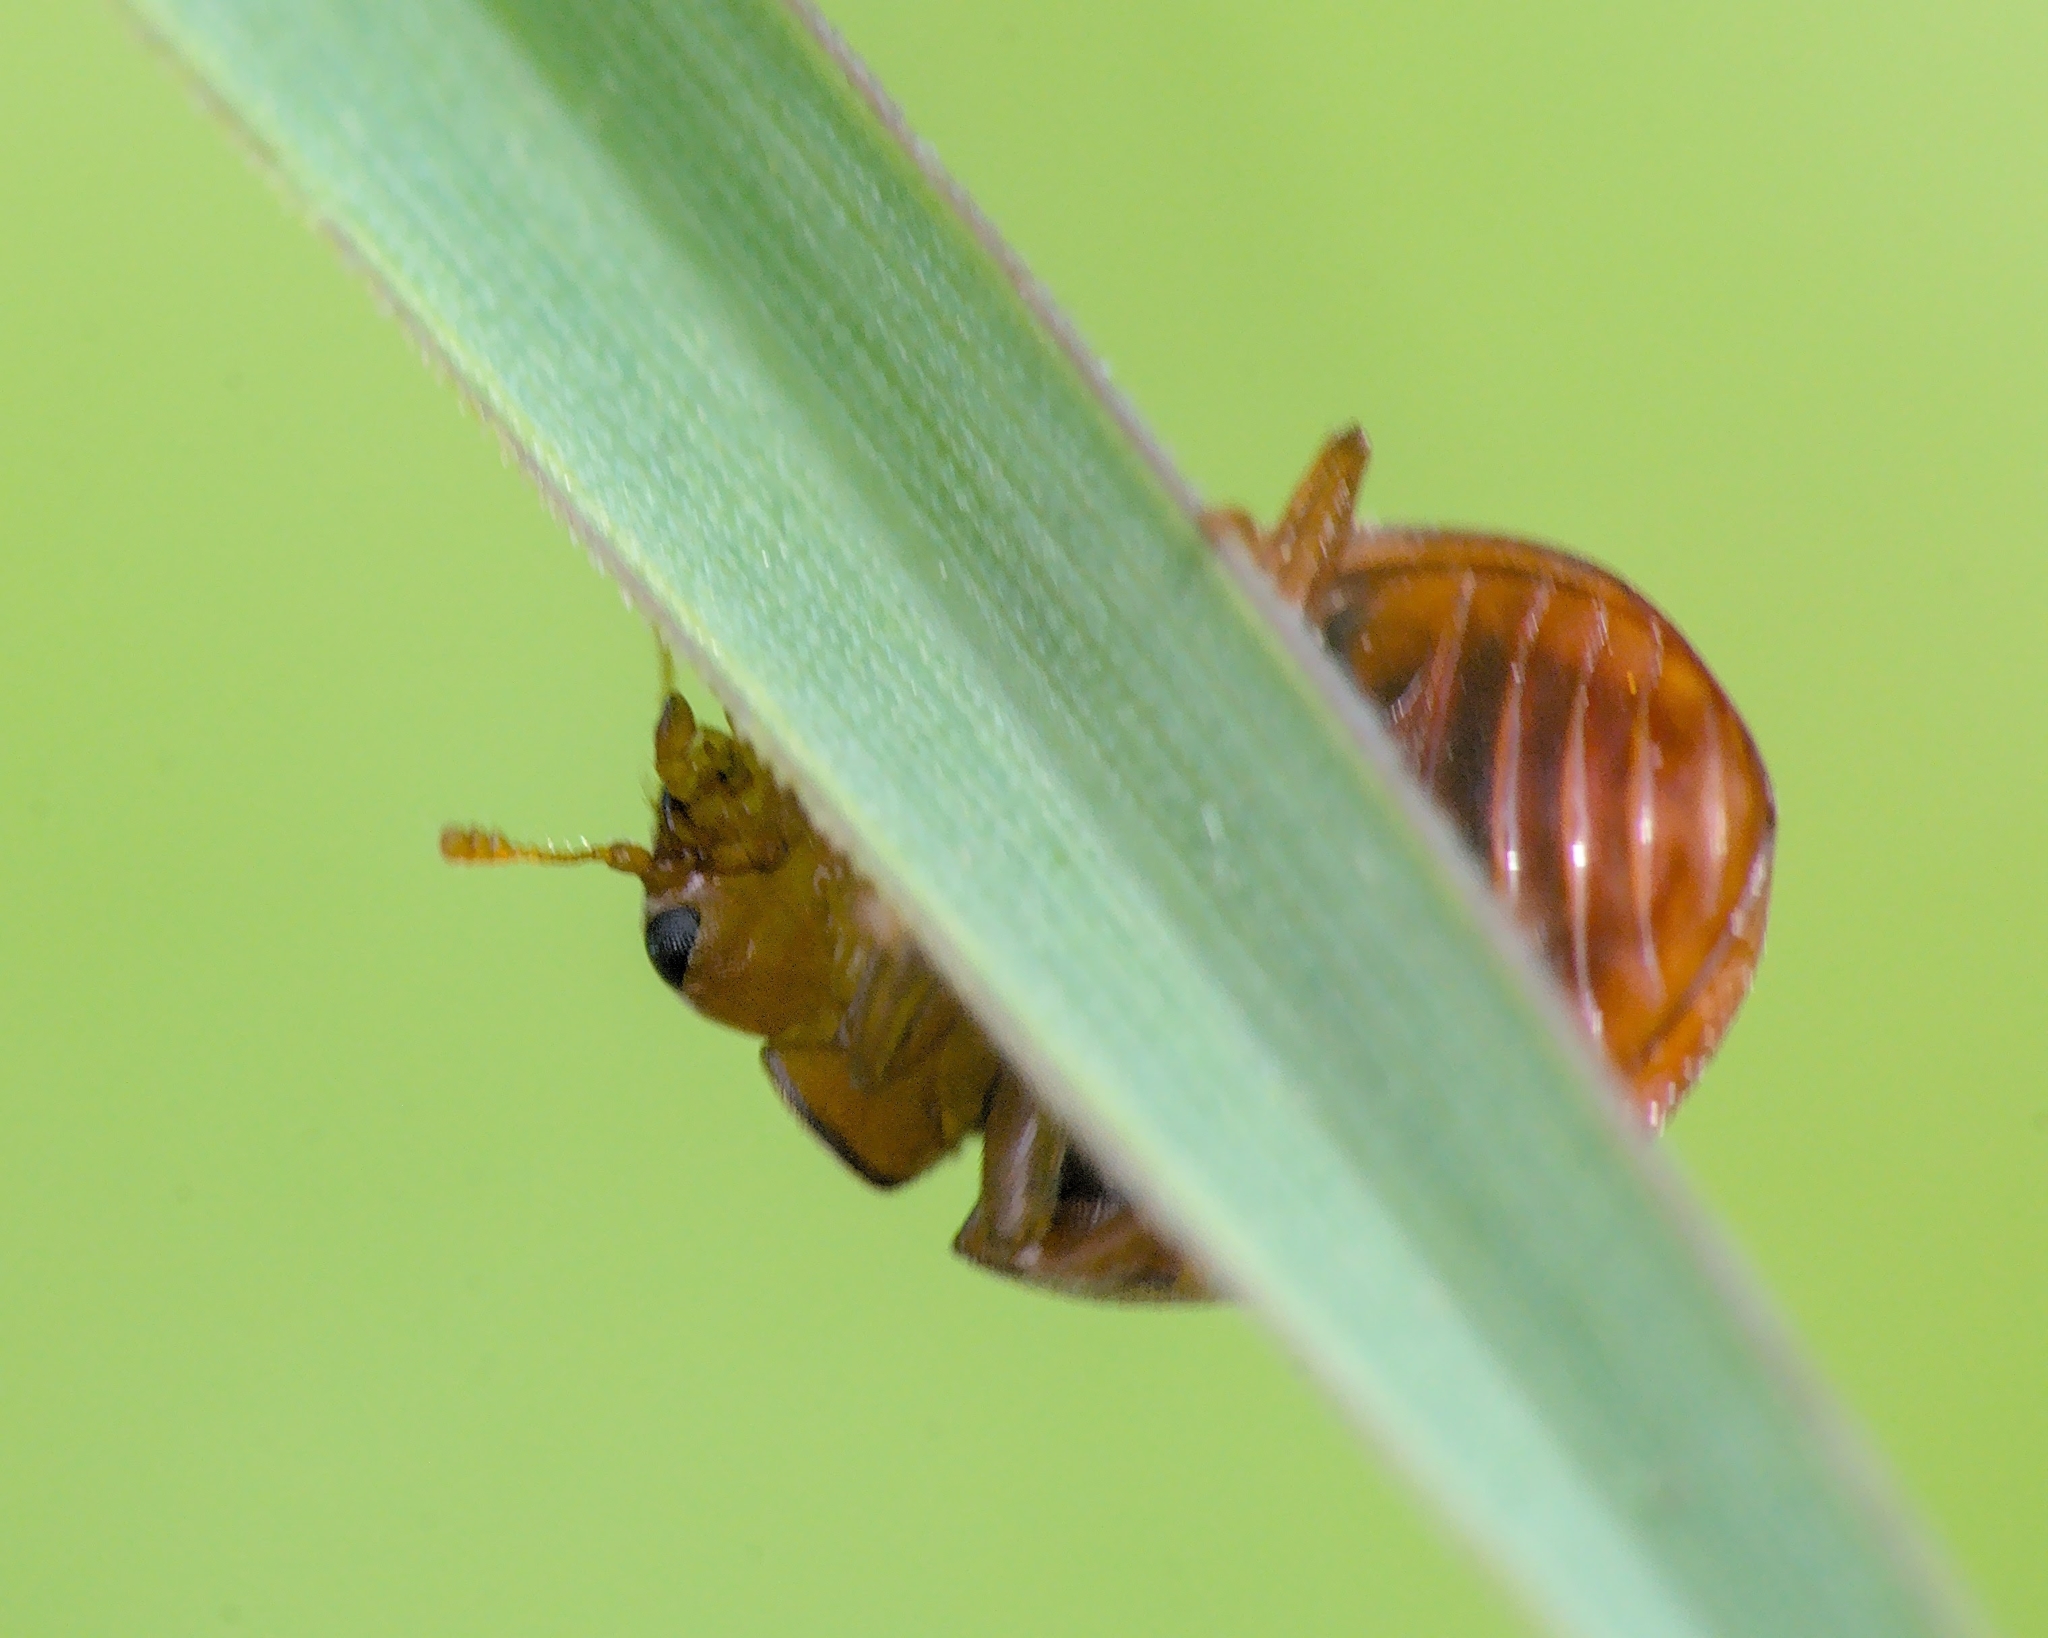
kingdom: Animalia
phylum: Arthropoda
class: Insecta
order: Coleoptera
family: Coccinellidae
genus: Subcoccinella
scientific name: Subcoccinella vigintiquatuorpunctata
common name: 24-spot ladybird
